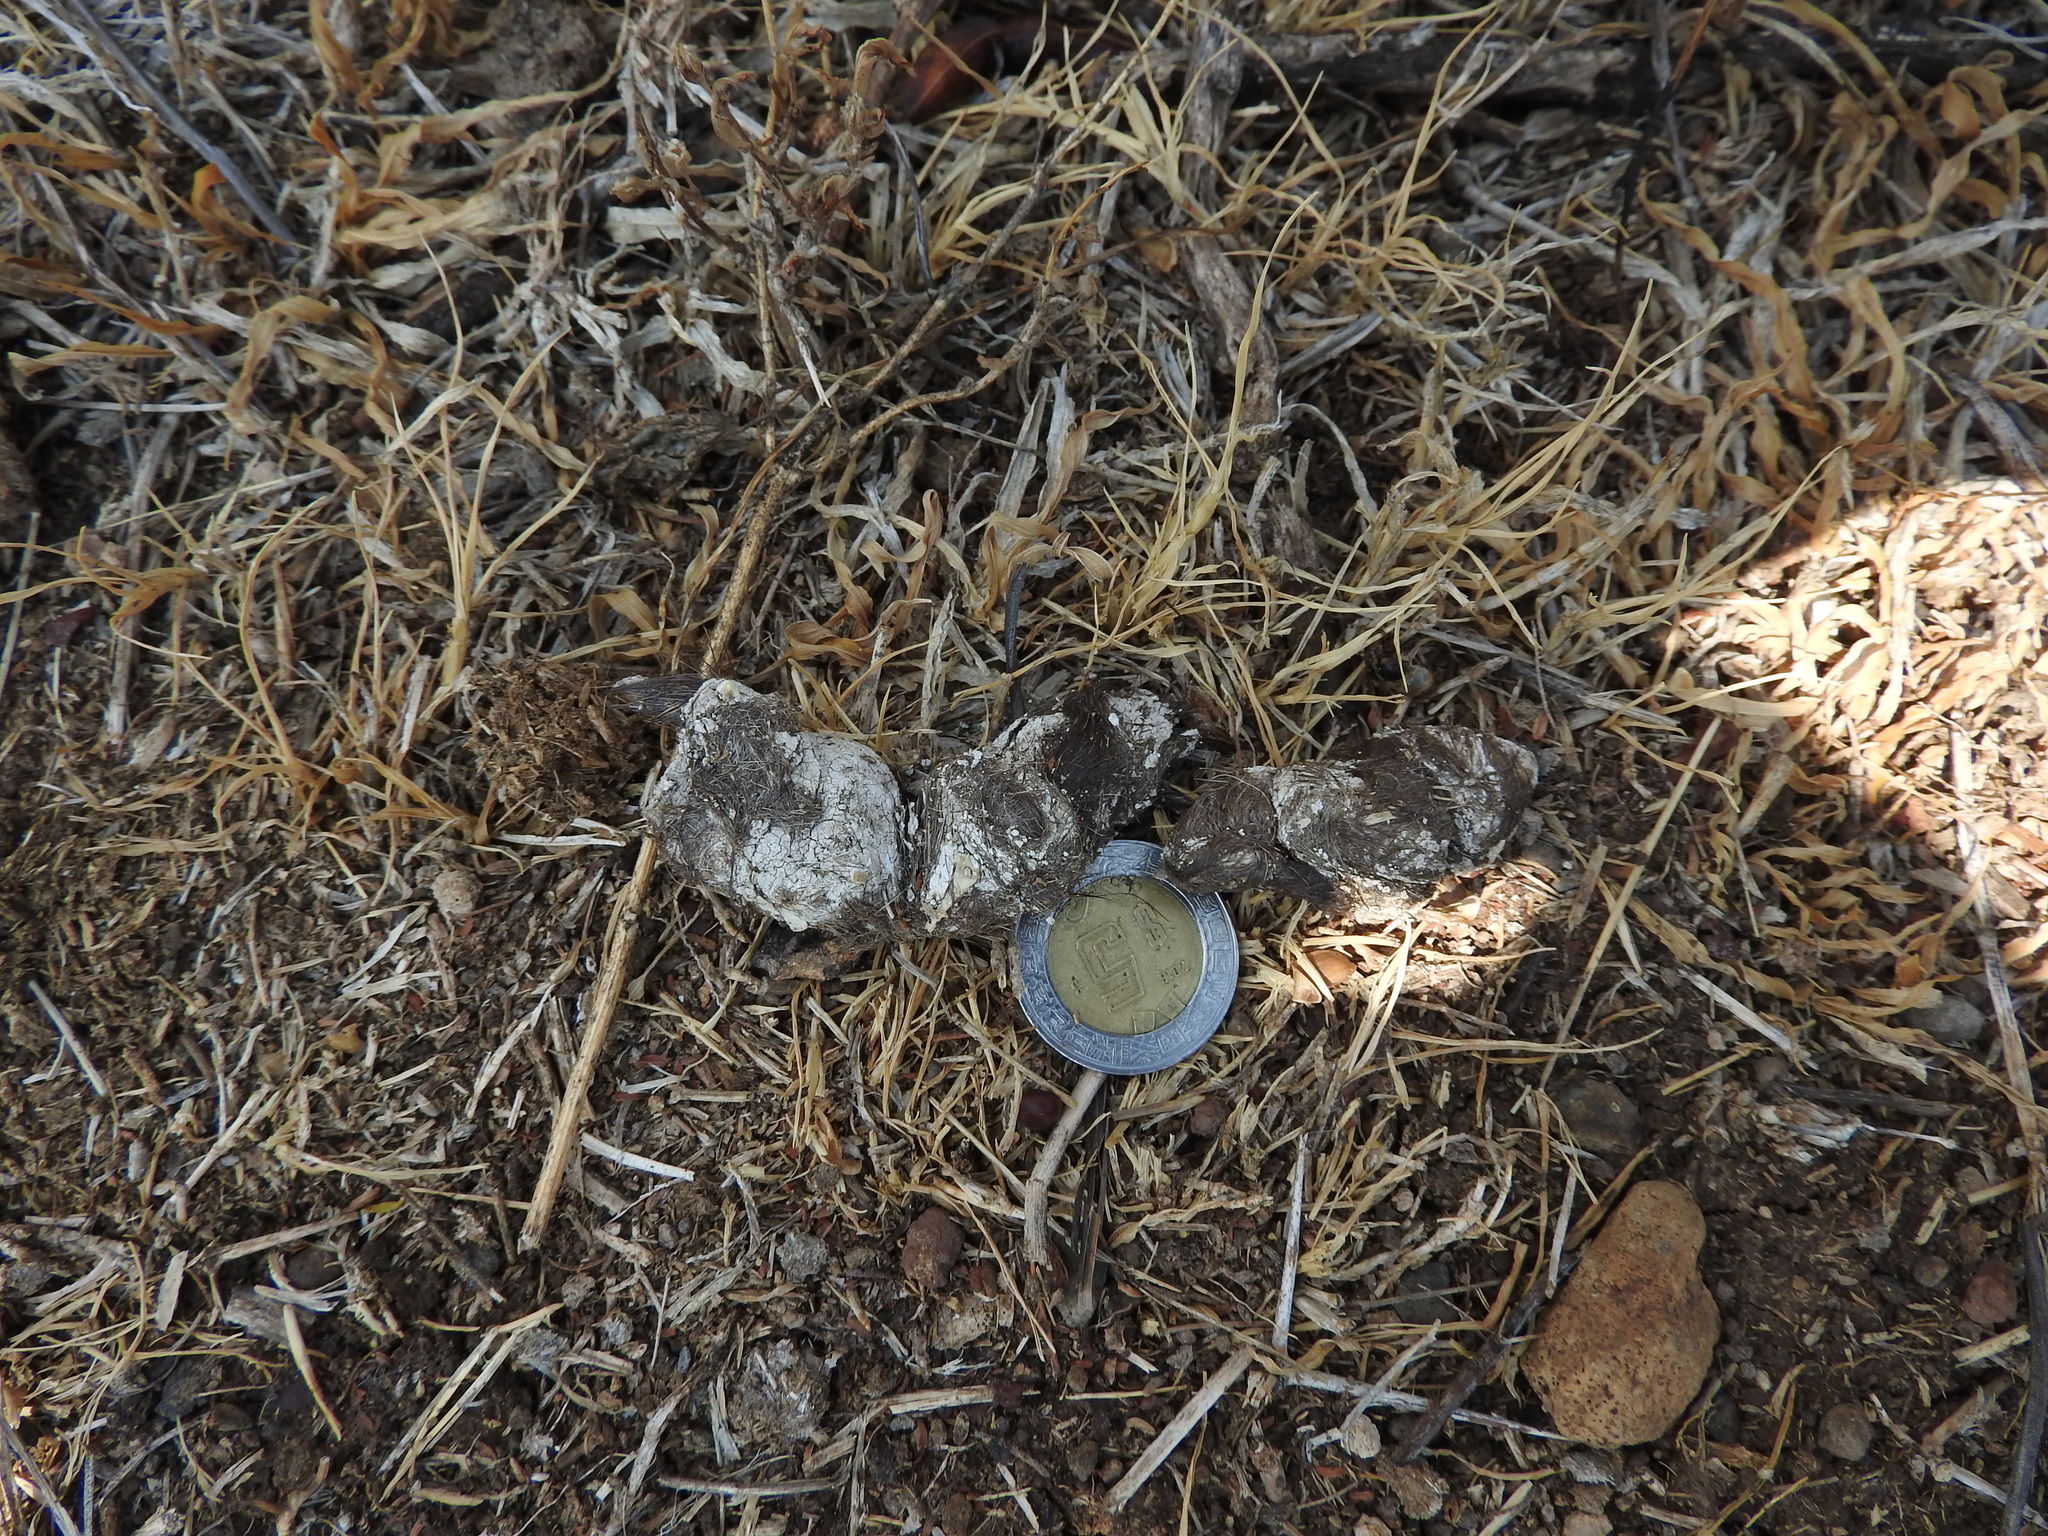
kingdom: Animalia
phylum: Chordata
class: Mammalia
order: Carnivora
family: Felidae
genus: Lynx
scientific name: Lynx rufus
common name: Bobcat
